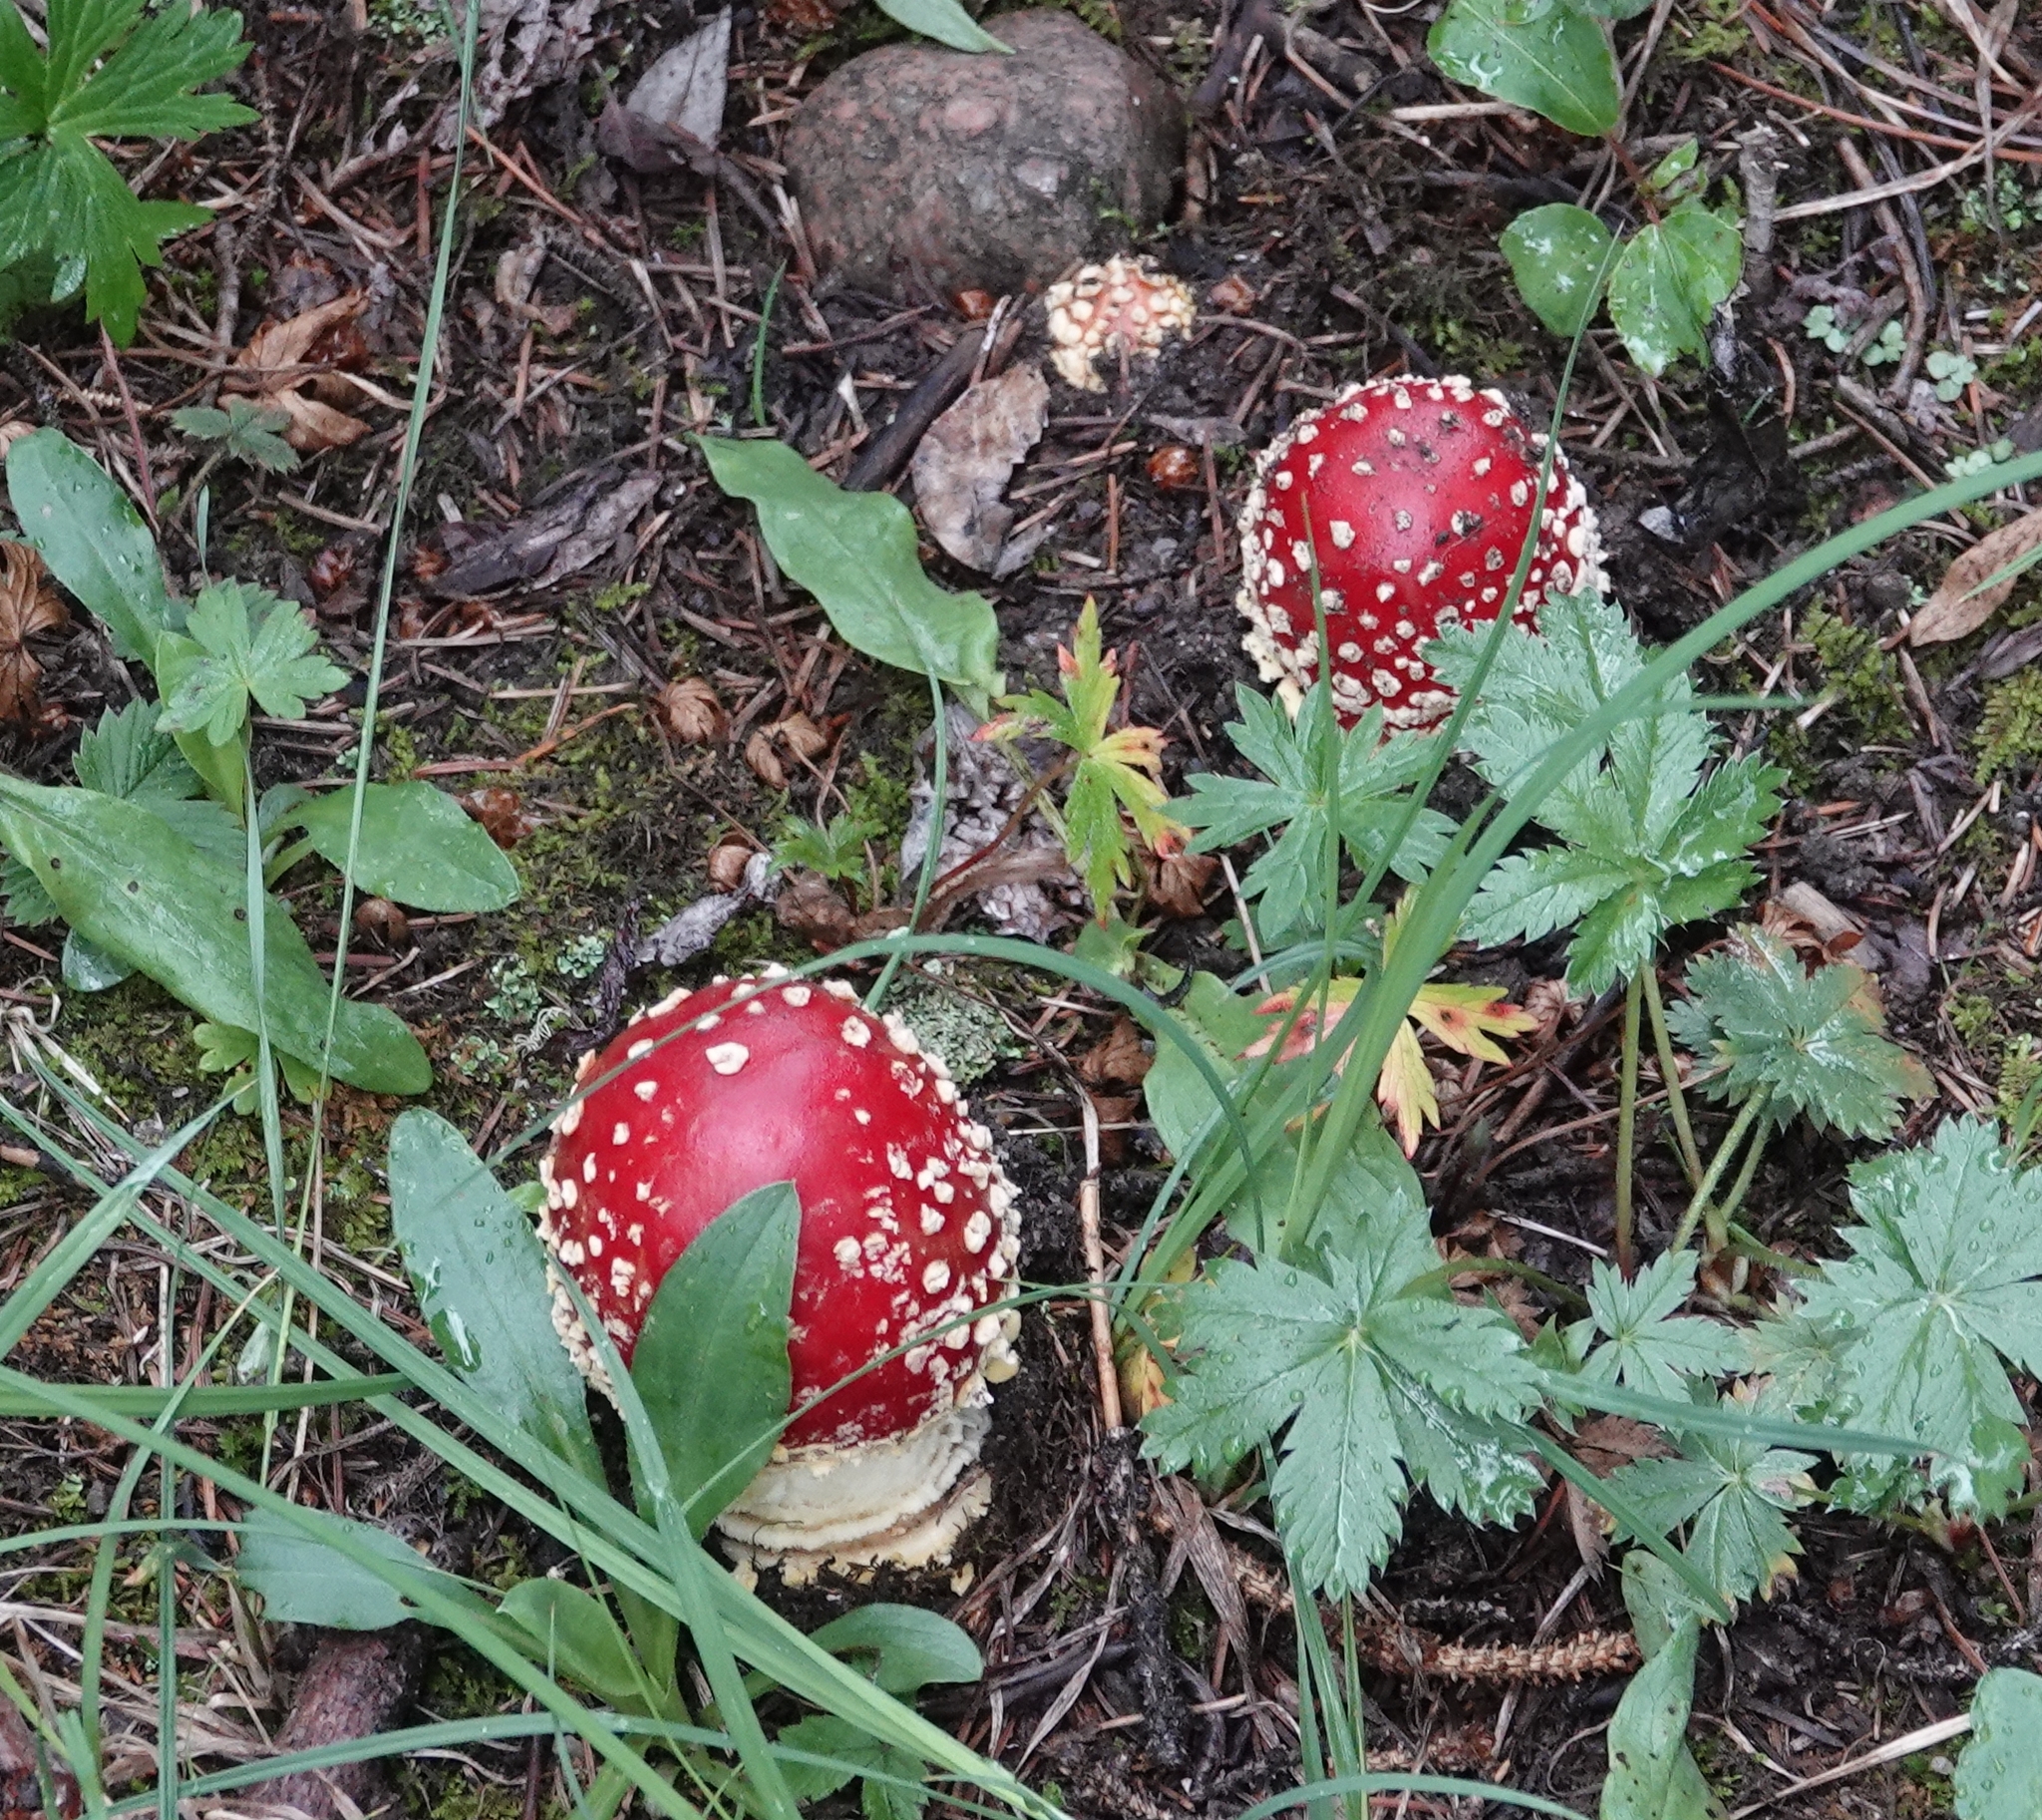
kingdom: Fungi
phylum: Basidiomycota
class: Agaricomycetes
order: Agaricales
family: Amanitaceae
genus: Amanita
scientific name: Amanita muscaria
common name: Fly agaric
